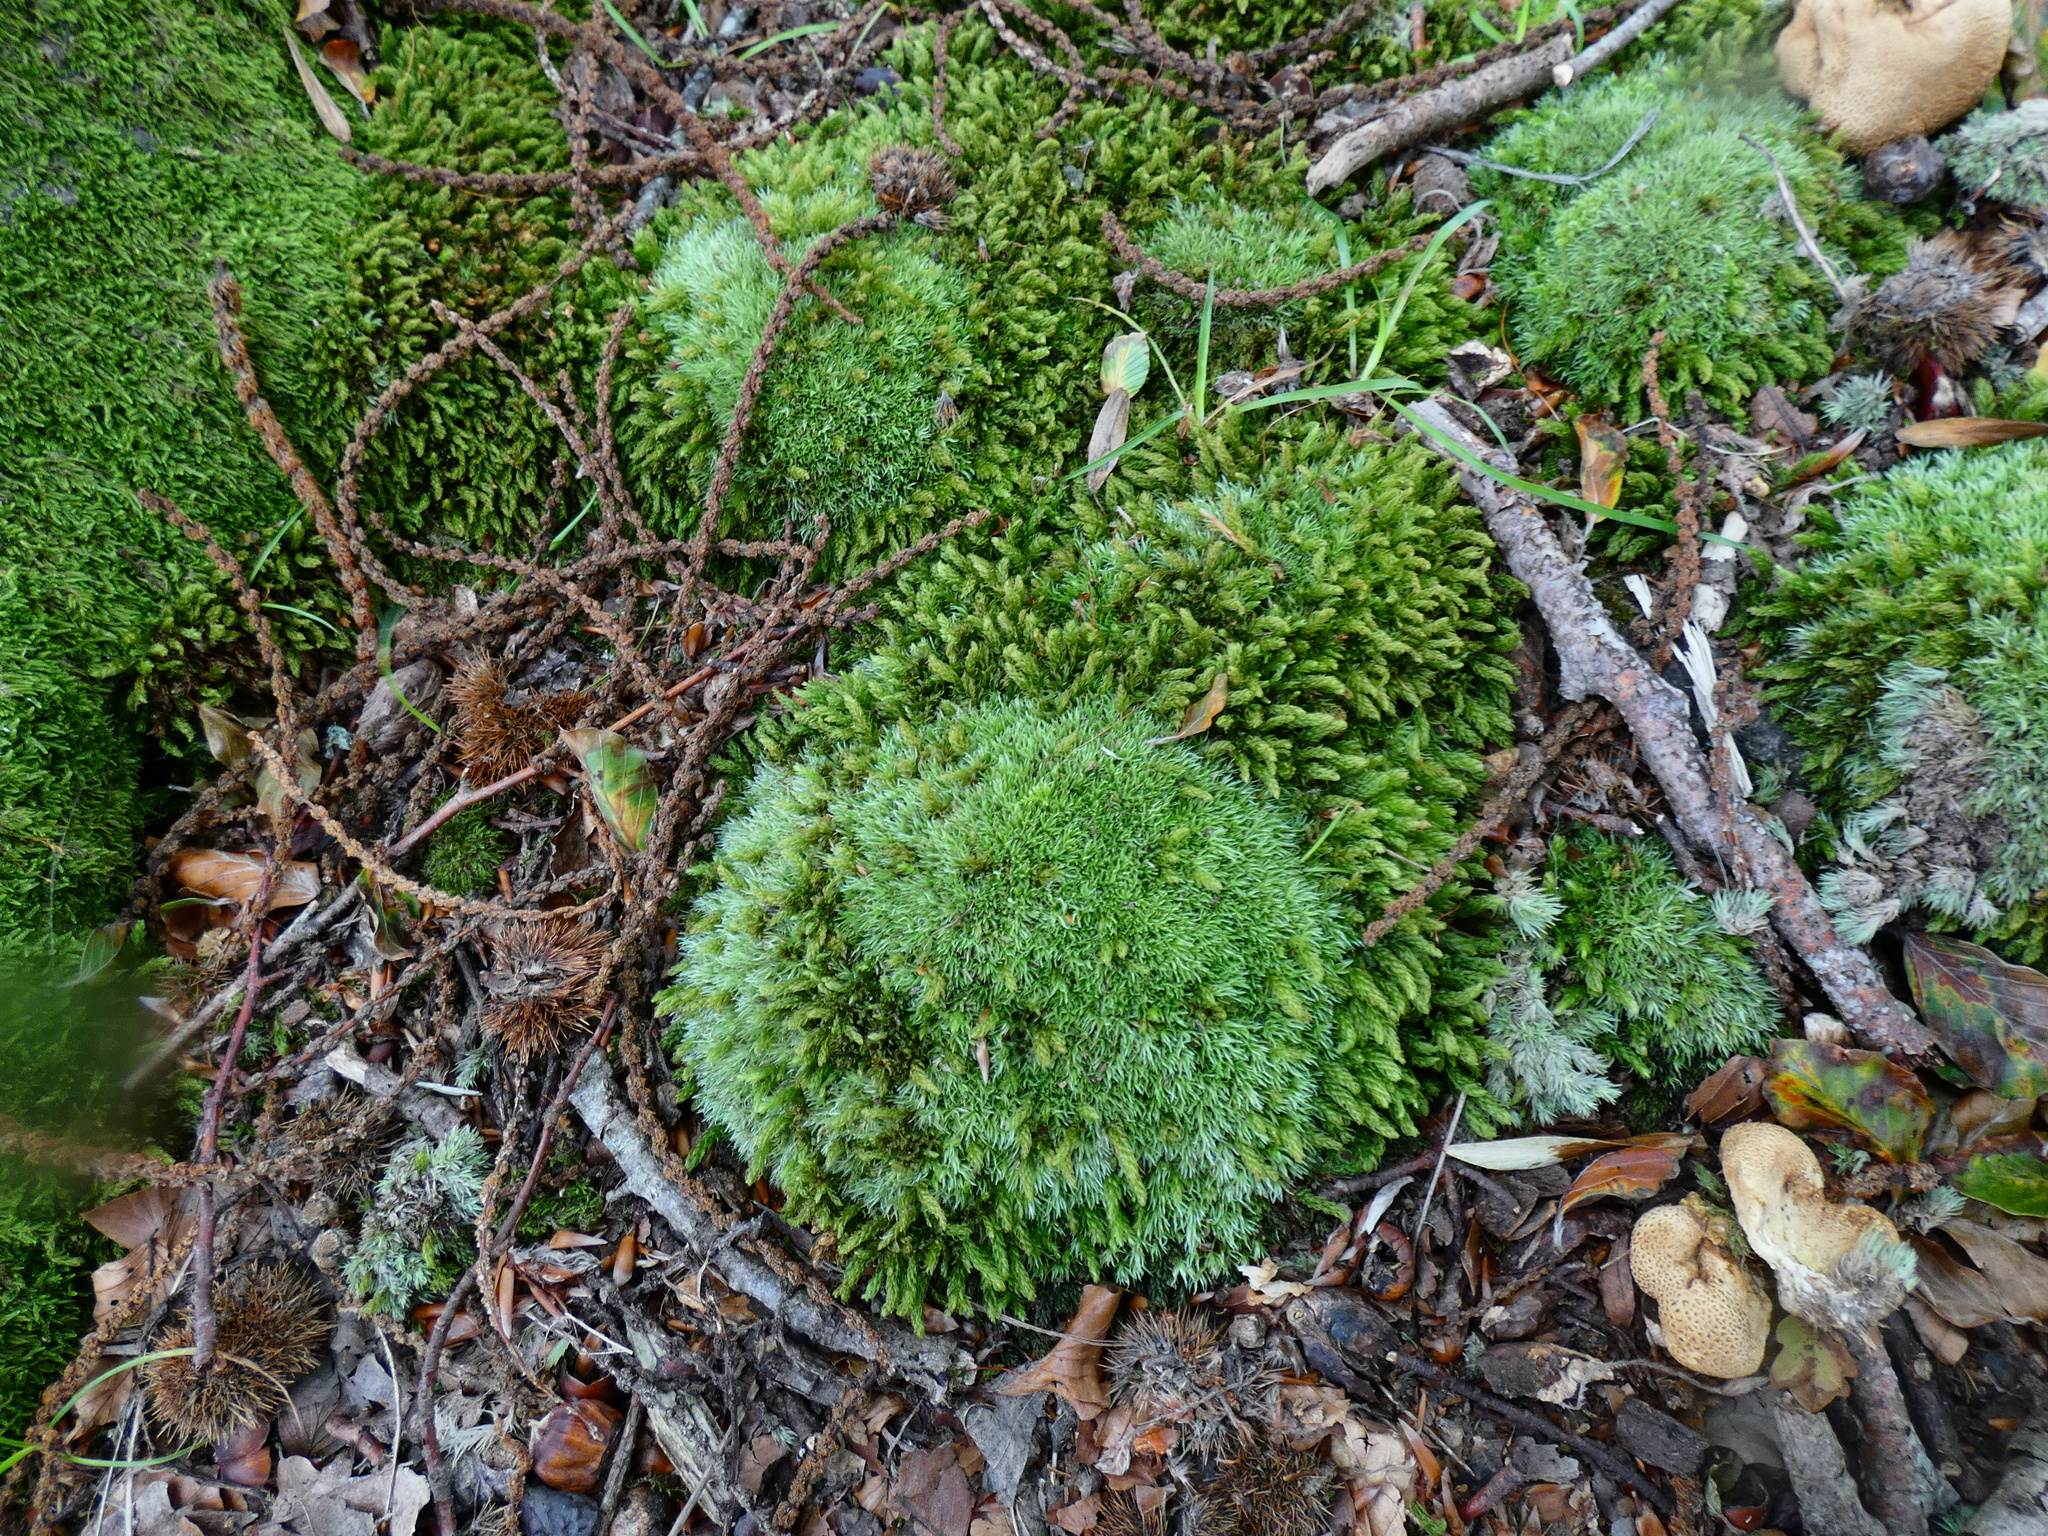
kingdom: Plantae
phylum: Bryophyta
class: Bryopsida
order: Dicranales
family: Leucobryaceae
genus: Leucobryum
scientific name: Leucobryum glaucum
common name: Large white-moss
